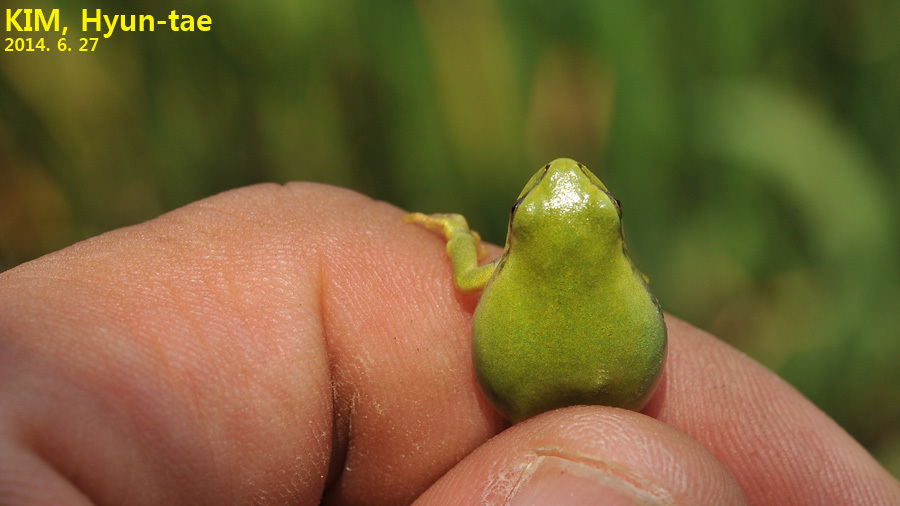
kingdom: Animalia
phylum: Chordata
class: Amphibia
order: Anura
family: Hylidae
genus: Dryophytes
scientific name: Dryophytes immaculatus
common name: North china treefrog
